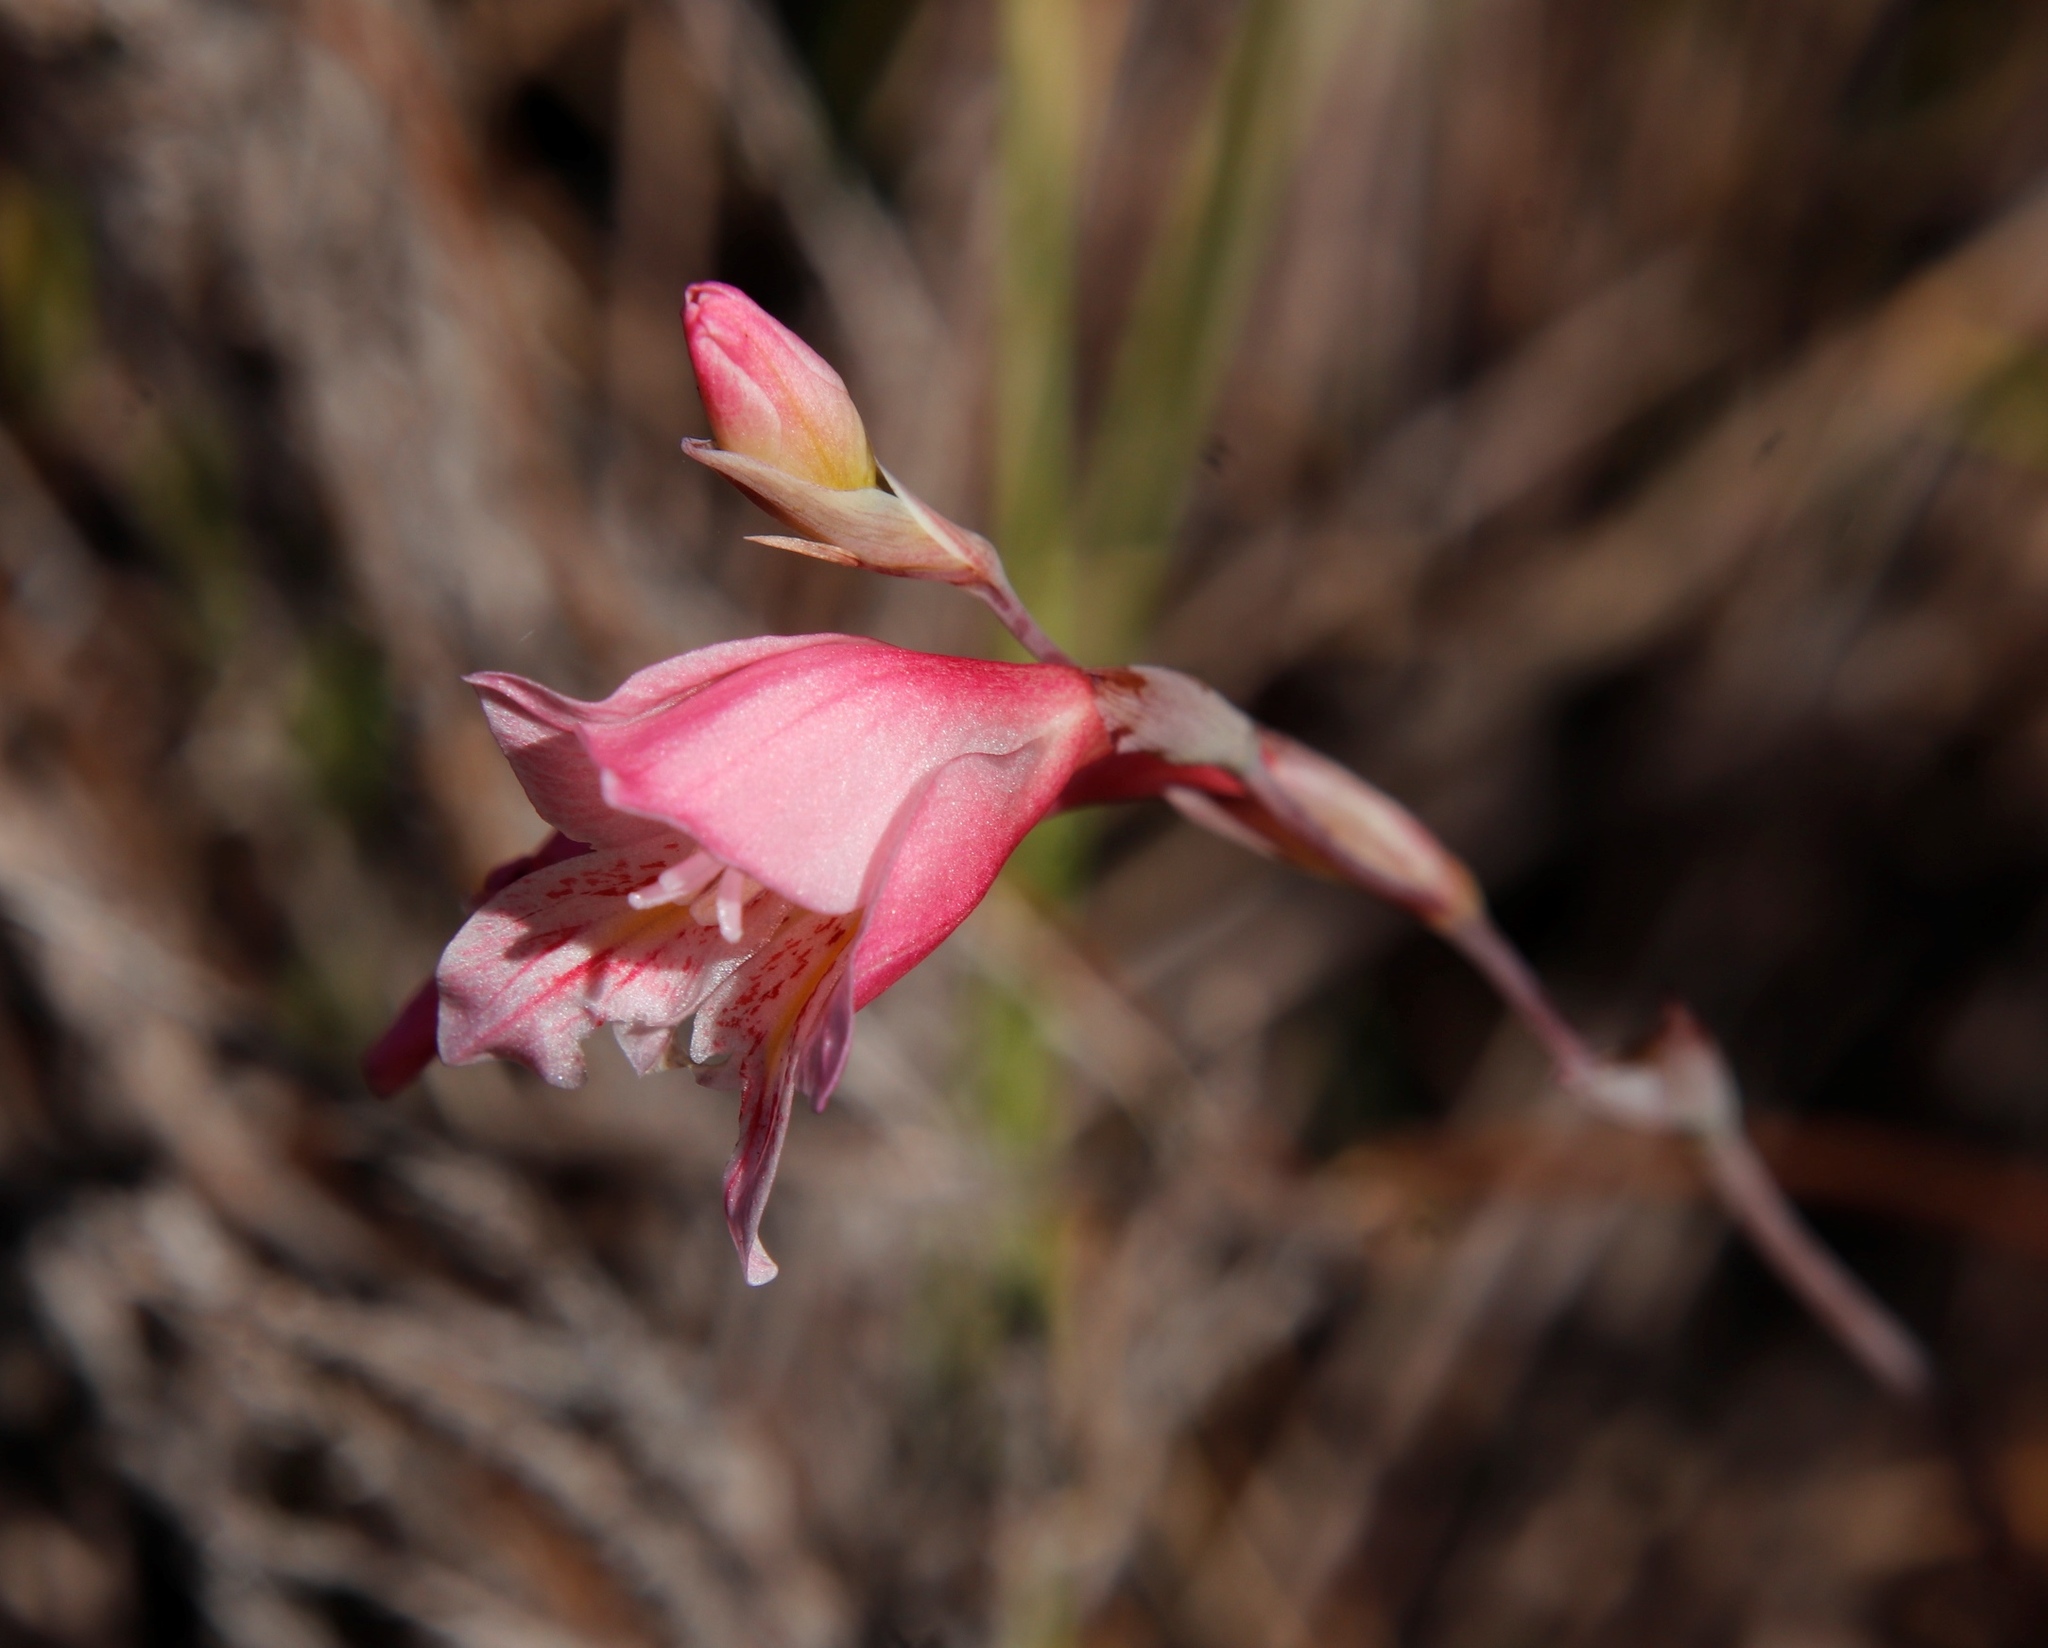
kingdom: Plantae
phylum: Tracheophyta
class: Liliopsida
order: Asparagales
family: Iridaceae
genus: Gladiolus
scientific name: Gladiolus brevifolius
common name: March pypie
